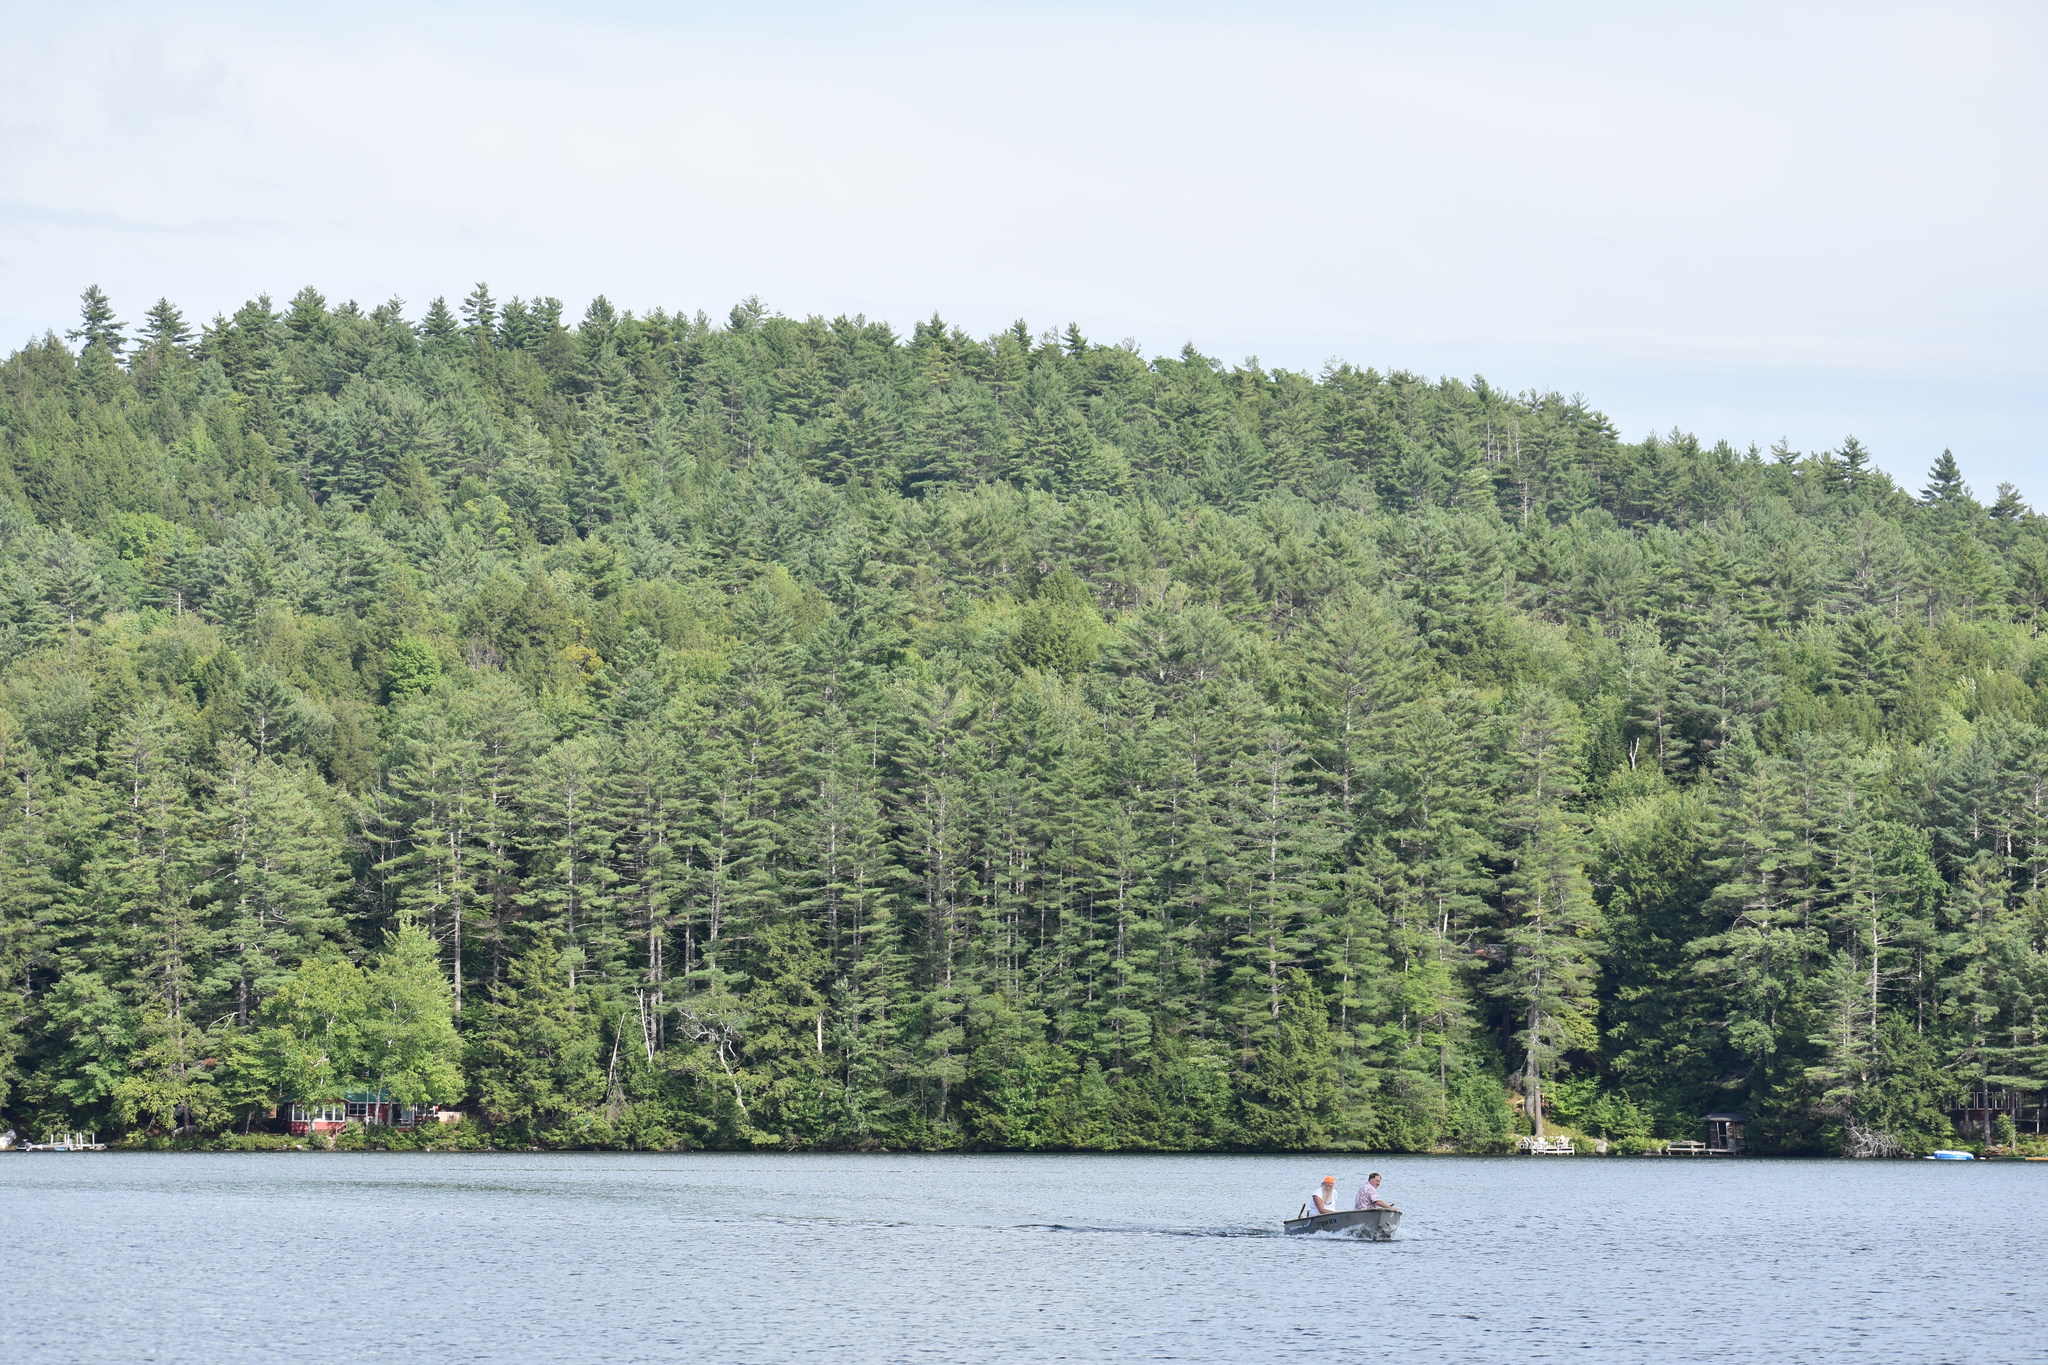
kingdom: Plantae
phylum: Tracheophyta
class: Pinopsida
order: Pinales
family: Pinaceae
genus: Pinus
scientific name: Pinus strobus
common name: Weymouth pine
